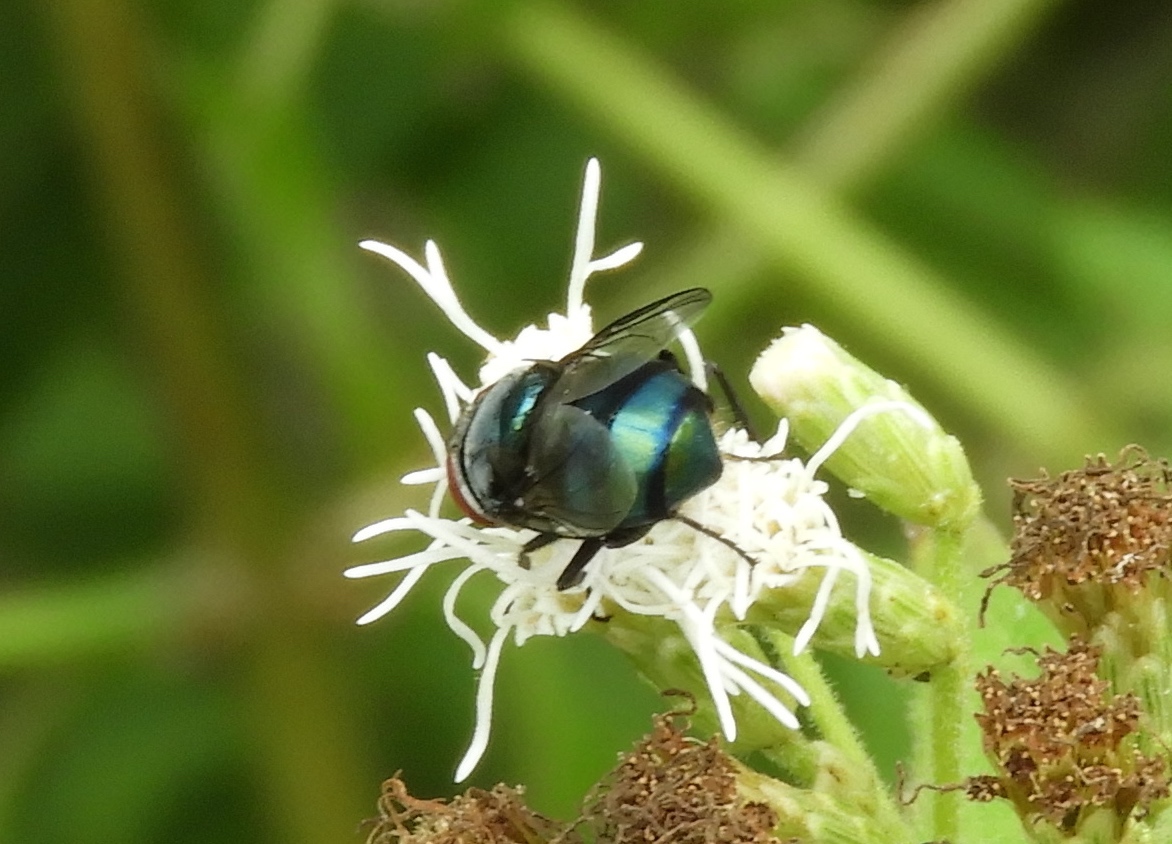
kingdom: Animalia
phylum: Arthropoda
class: Insecta
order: Diptera
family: Calliphoridae
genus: Chrysomya
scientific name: Chrysomya
